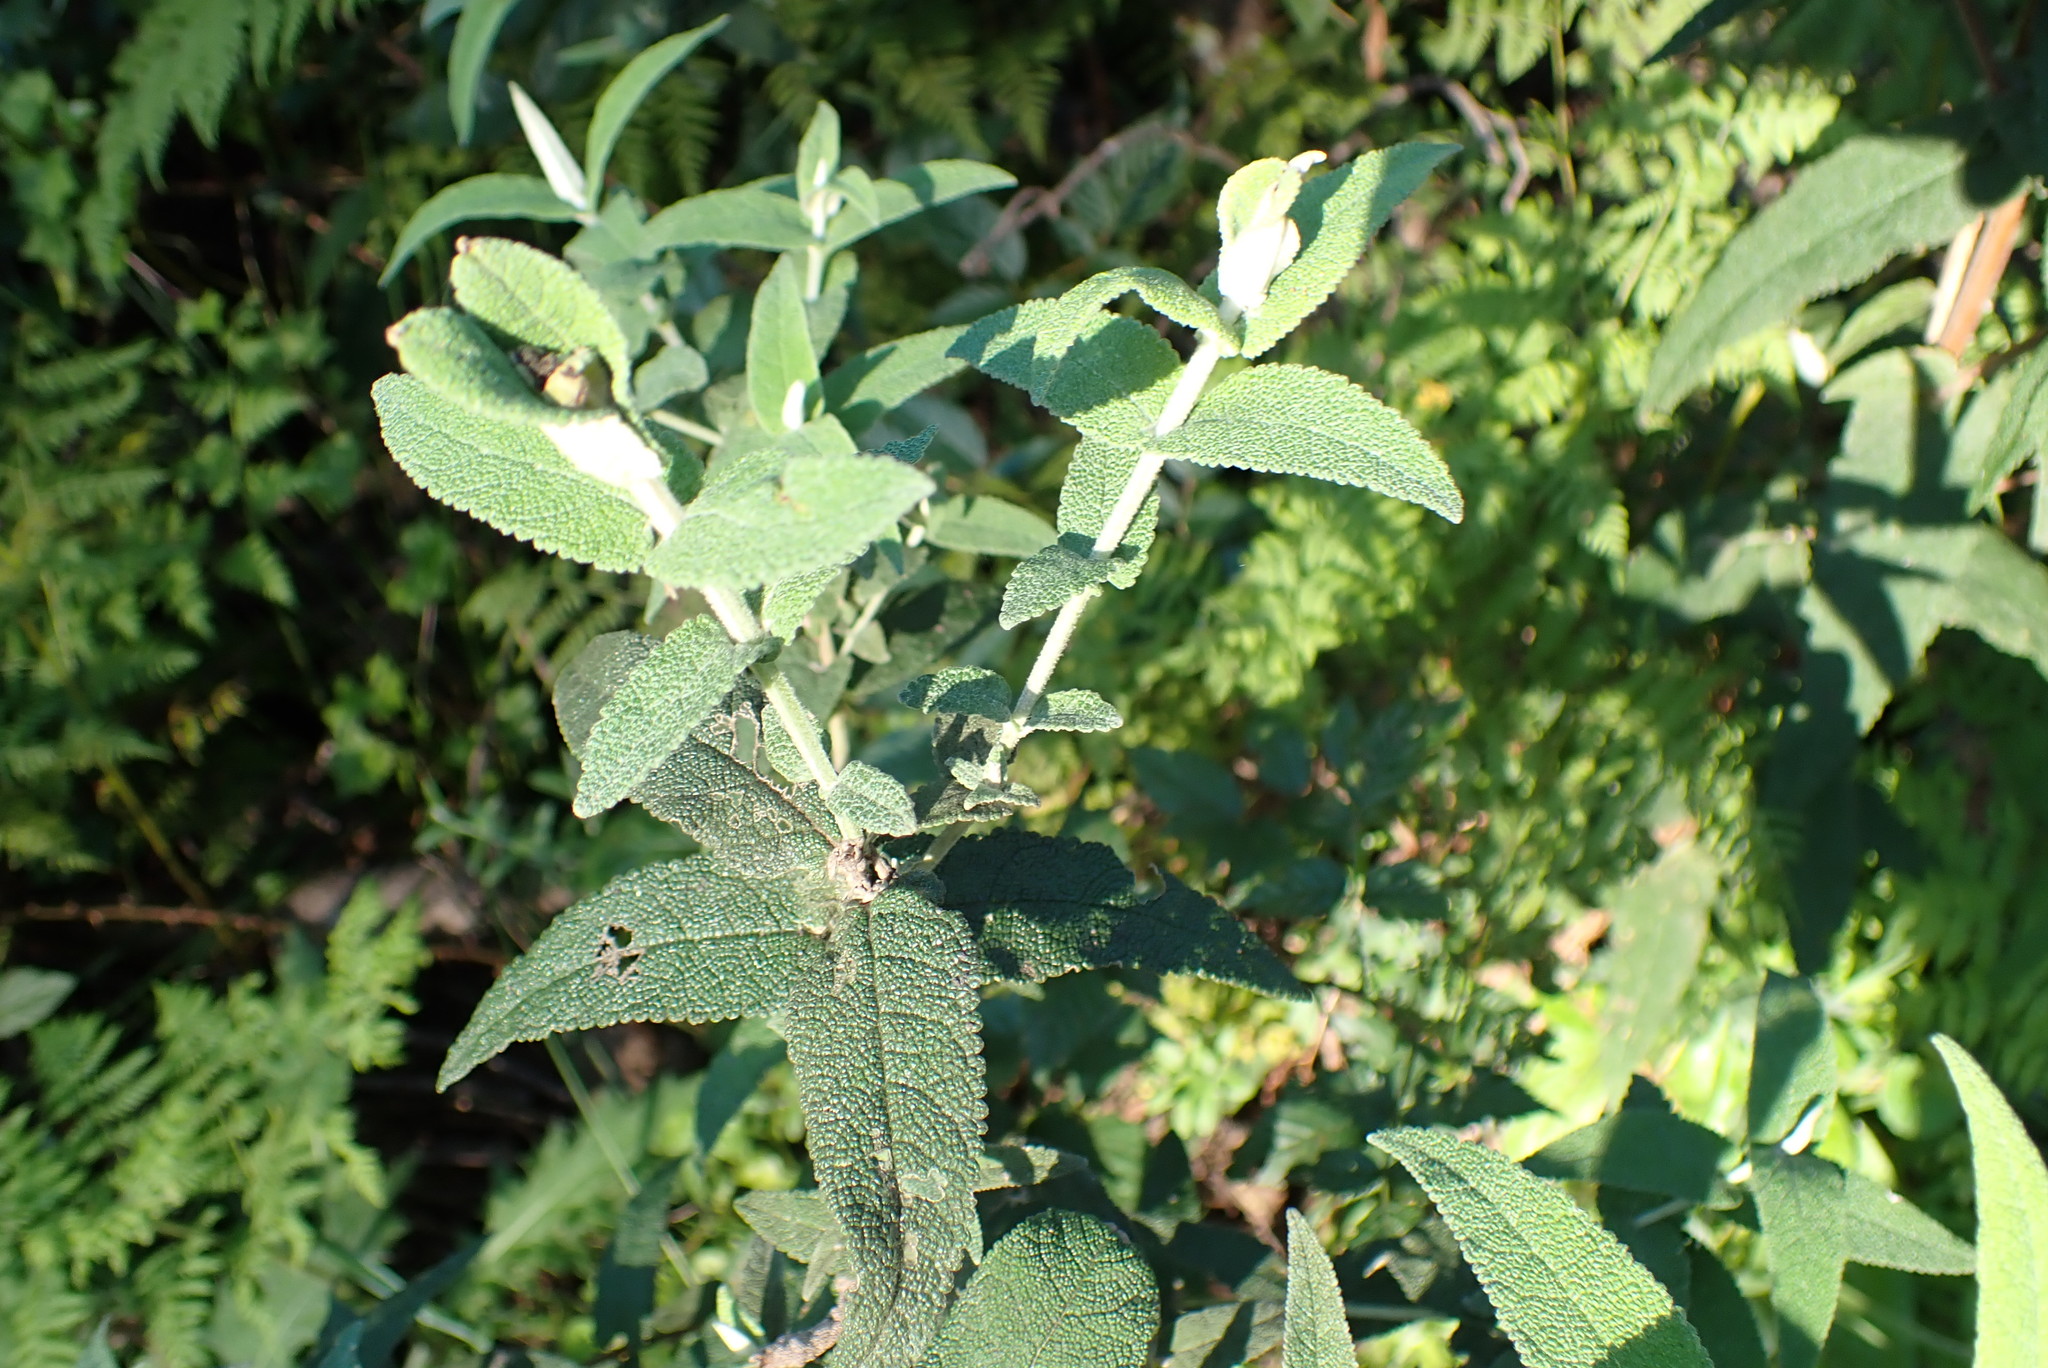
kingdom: Plantae
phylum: Tracheophyta
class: Magnoliopsida
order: Lamiales
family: Scrophulariaceae
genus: Buddleja
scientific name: Buddleja salviifolia
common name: Sagewood
